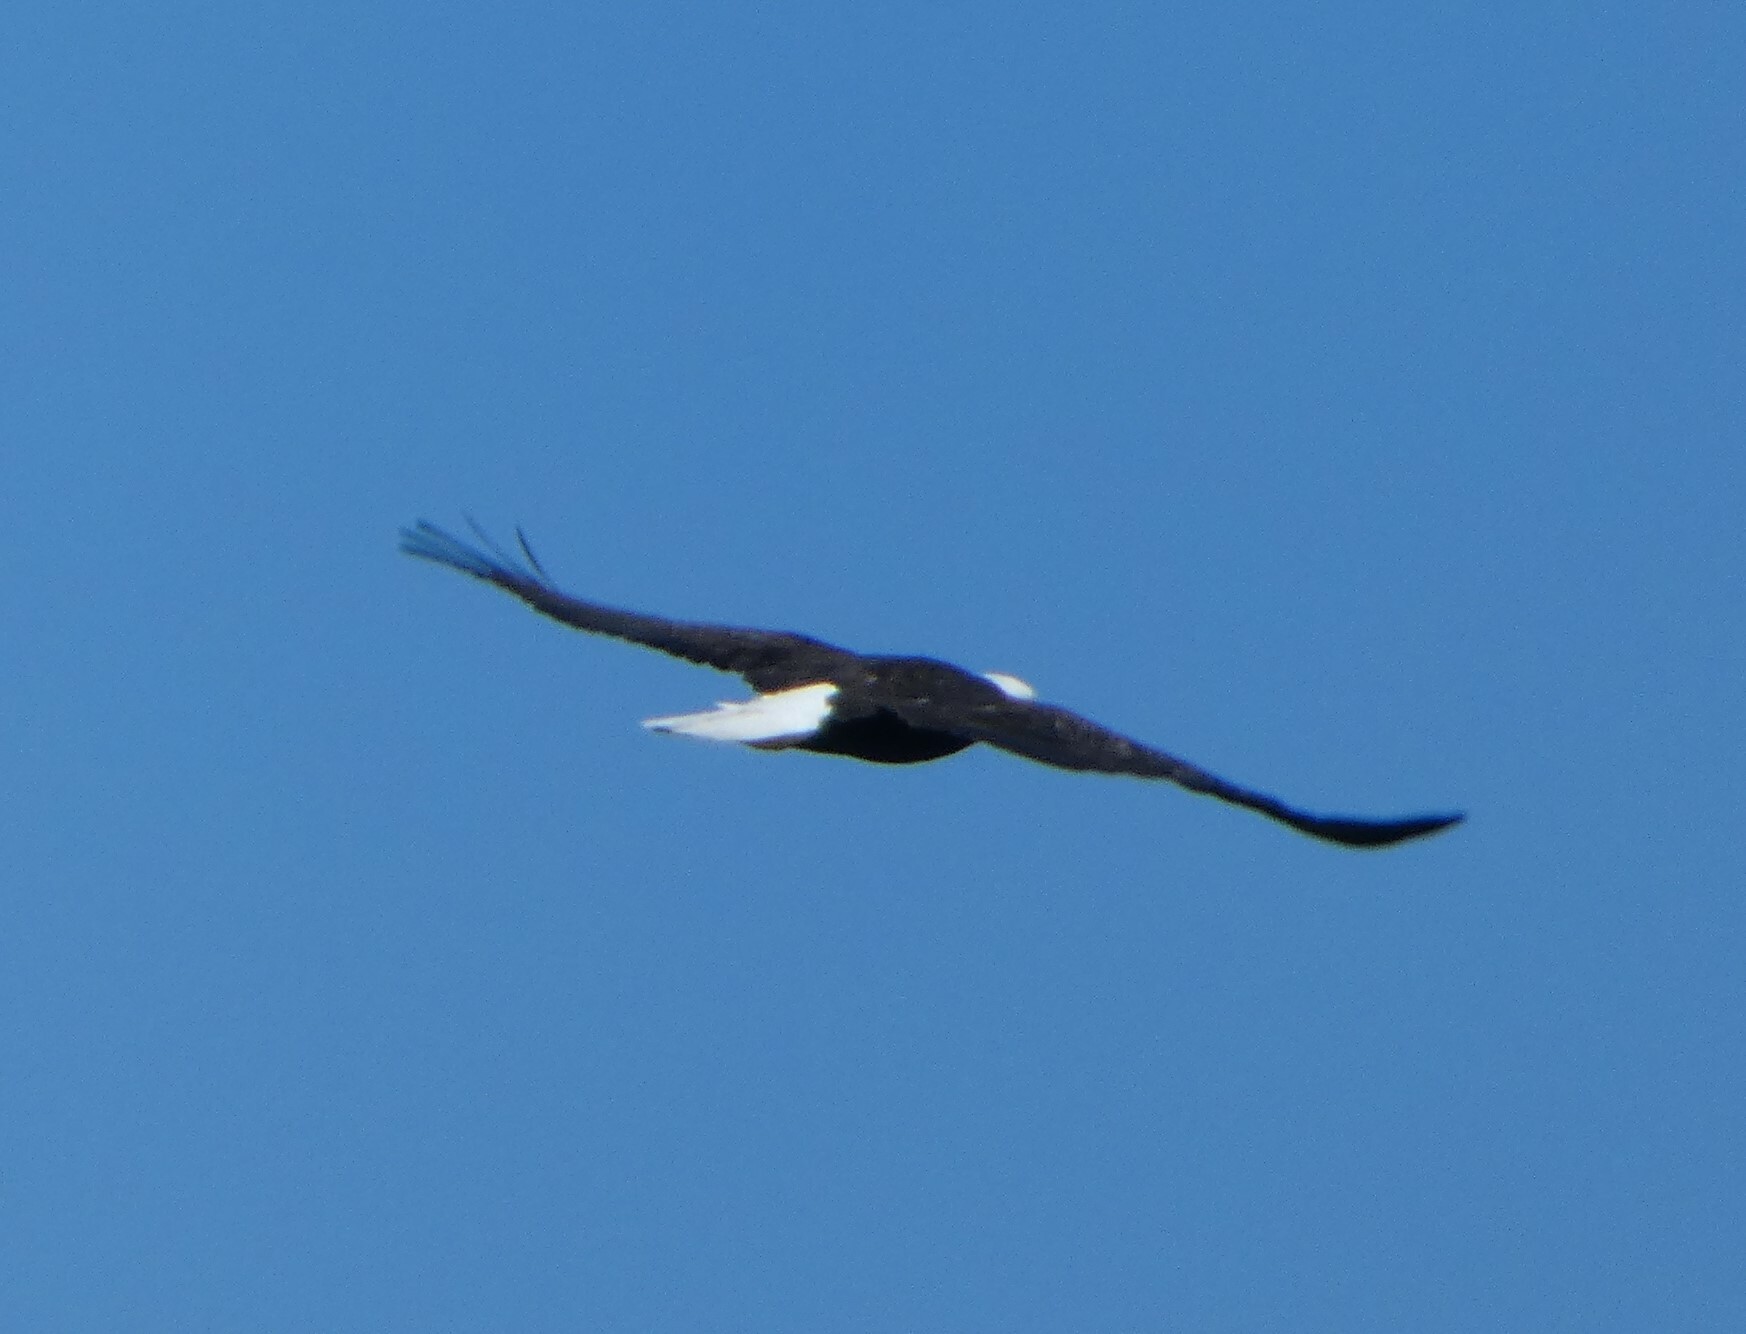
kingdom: Animalia
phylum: Chordata
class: Aves
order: Accipitriformes
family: Accipitridae
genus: Haliaeetus
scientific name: Haliaeetus leucocephalus
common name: Bald eagle
